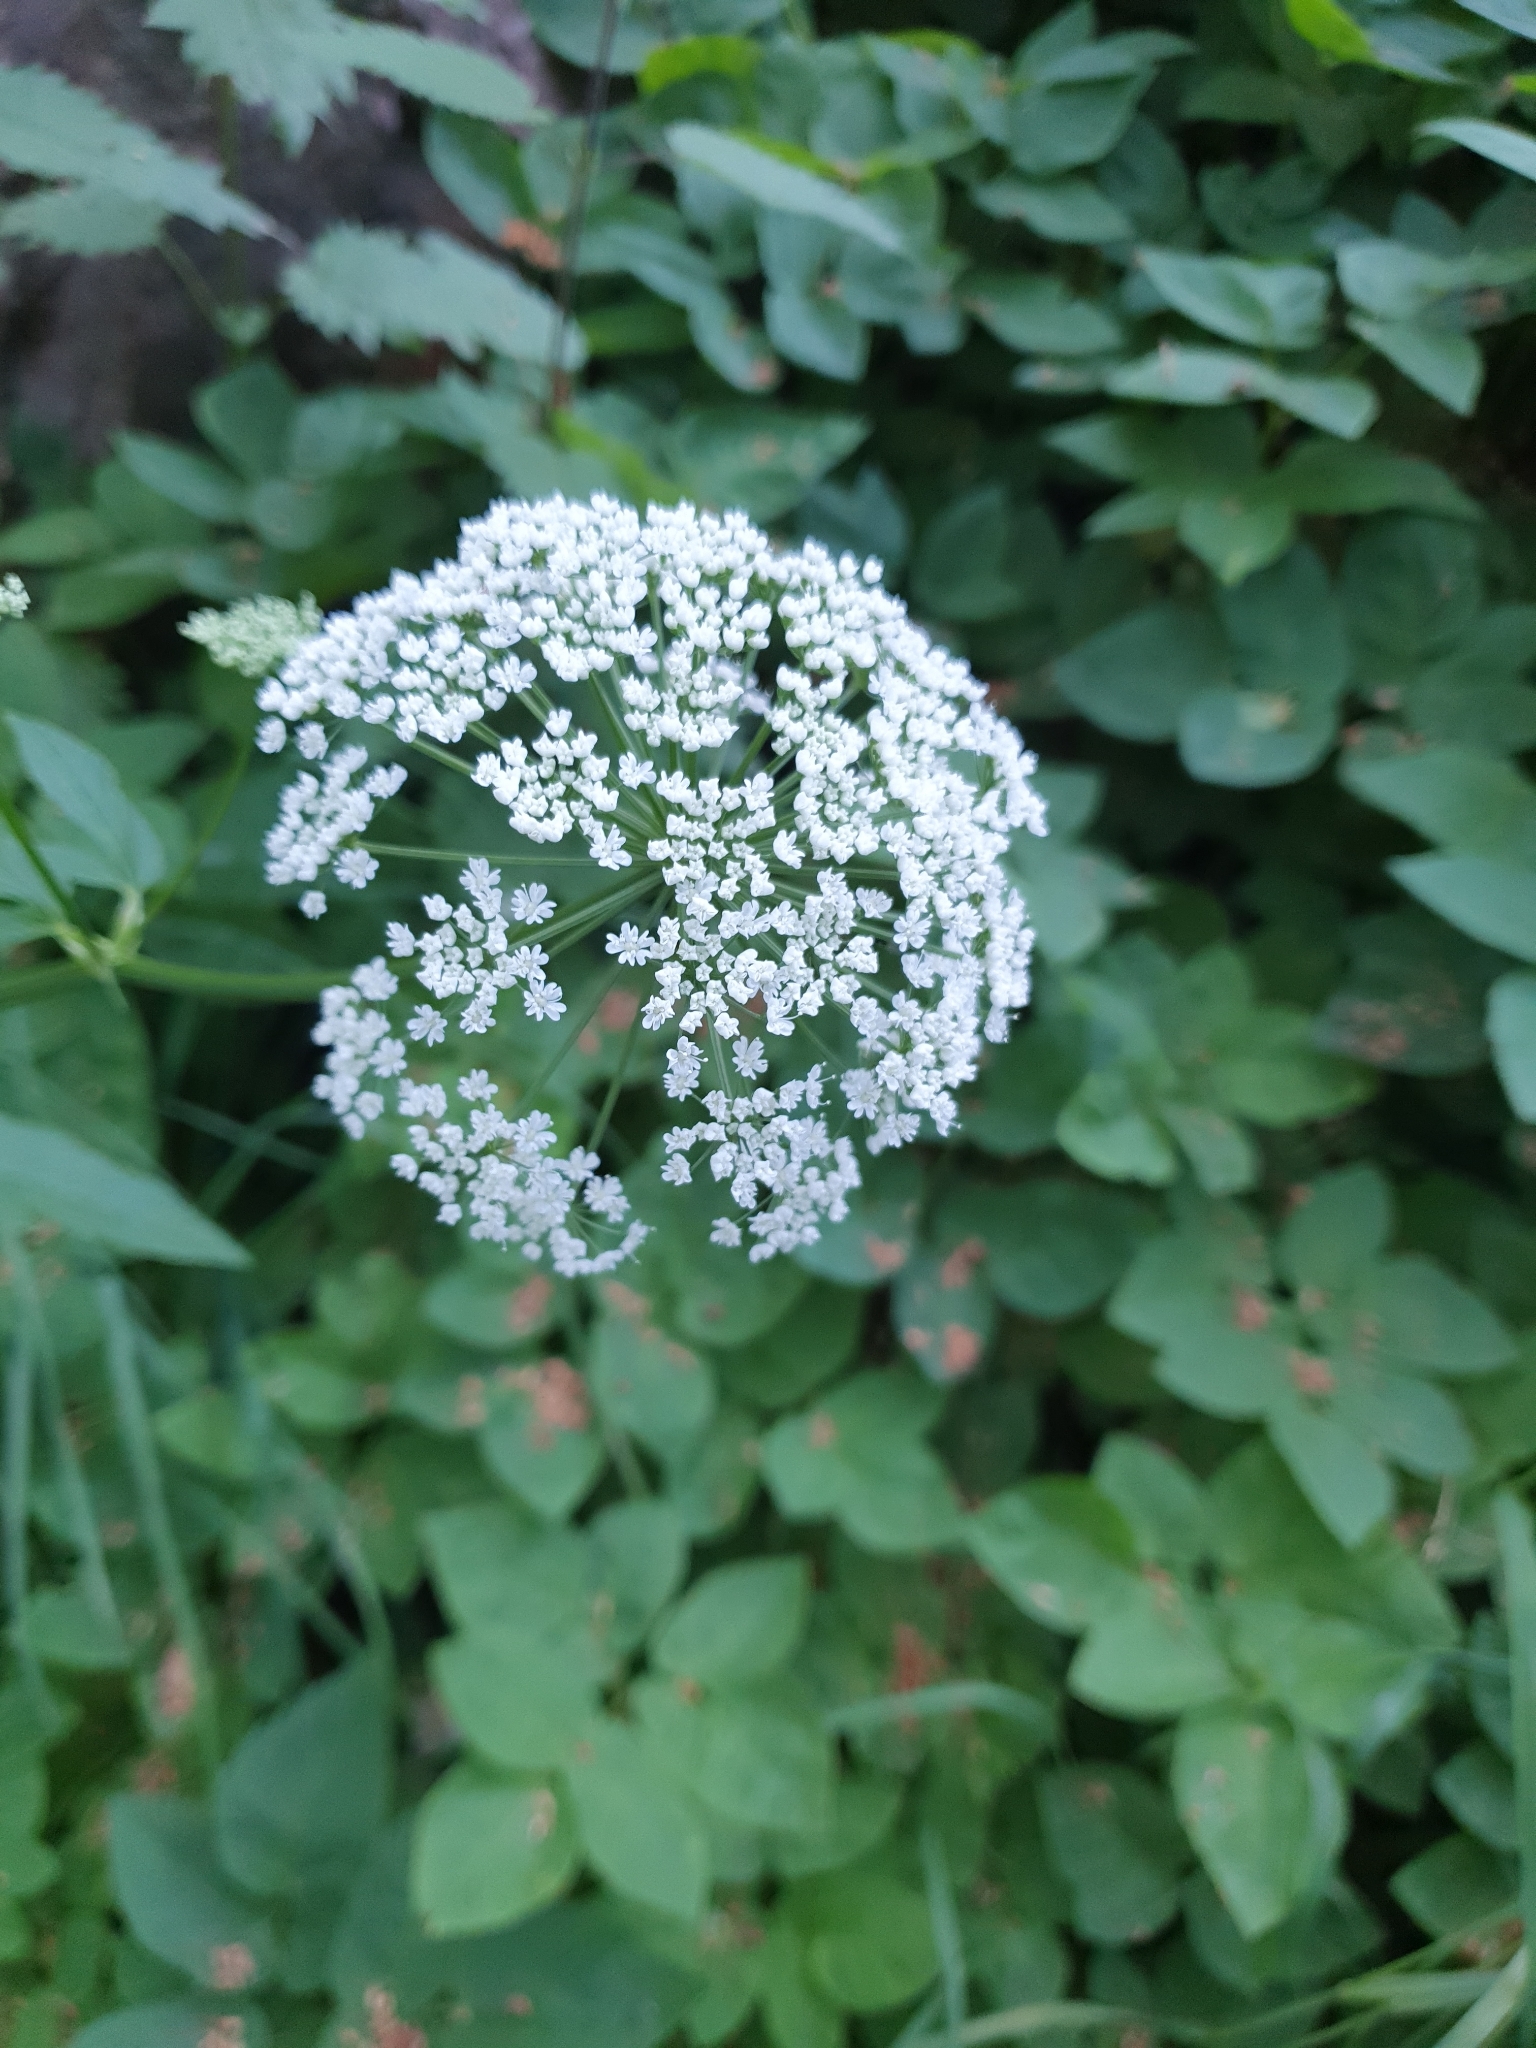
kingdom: Plantae
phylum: Tracheophyta
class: Magnoliopsida
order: Apiales
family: Apiaceae
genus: Aegopodium
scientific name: Aegopodium podagraria
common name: Ground-elder
